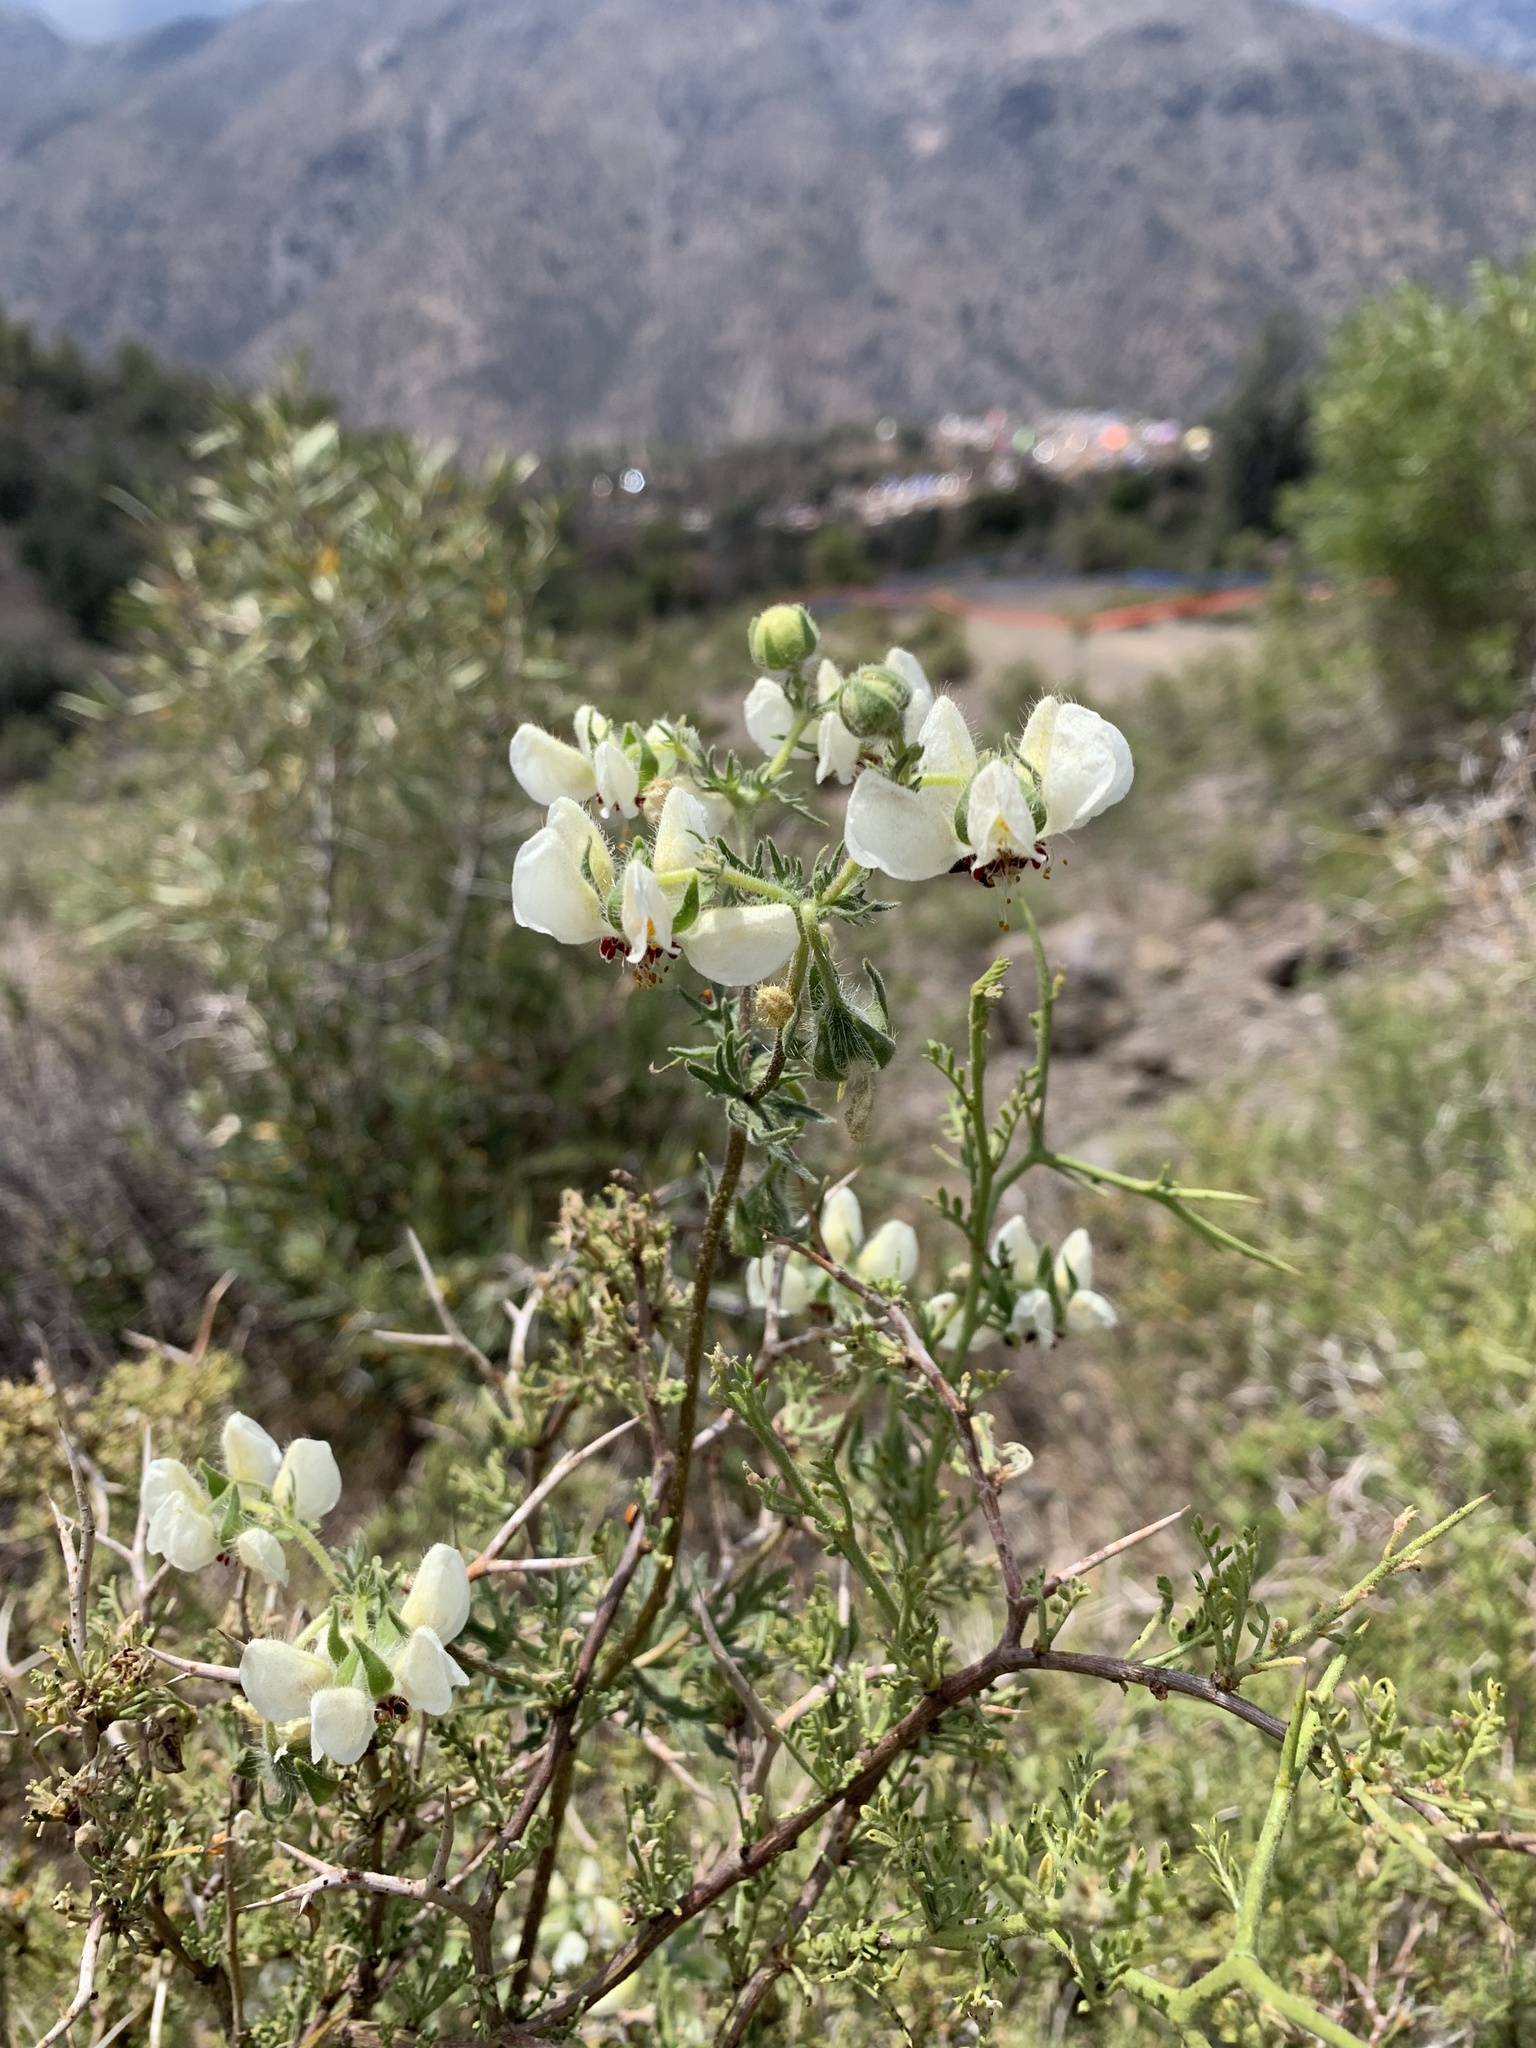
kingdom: Plantae
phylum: Tracheophyta
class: Magnoliopsida
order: Cornales
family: Loasaceae
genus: Loasa
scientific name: Loasa prostrata
